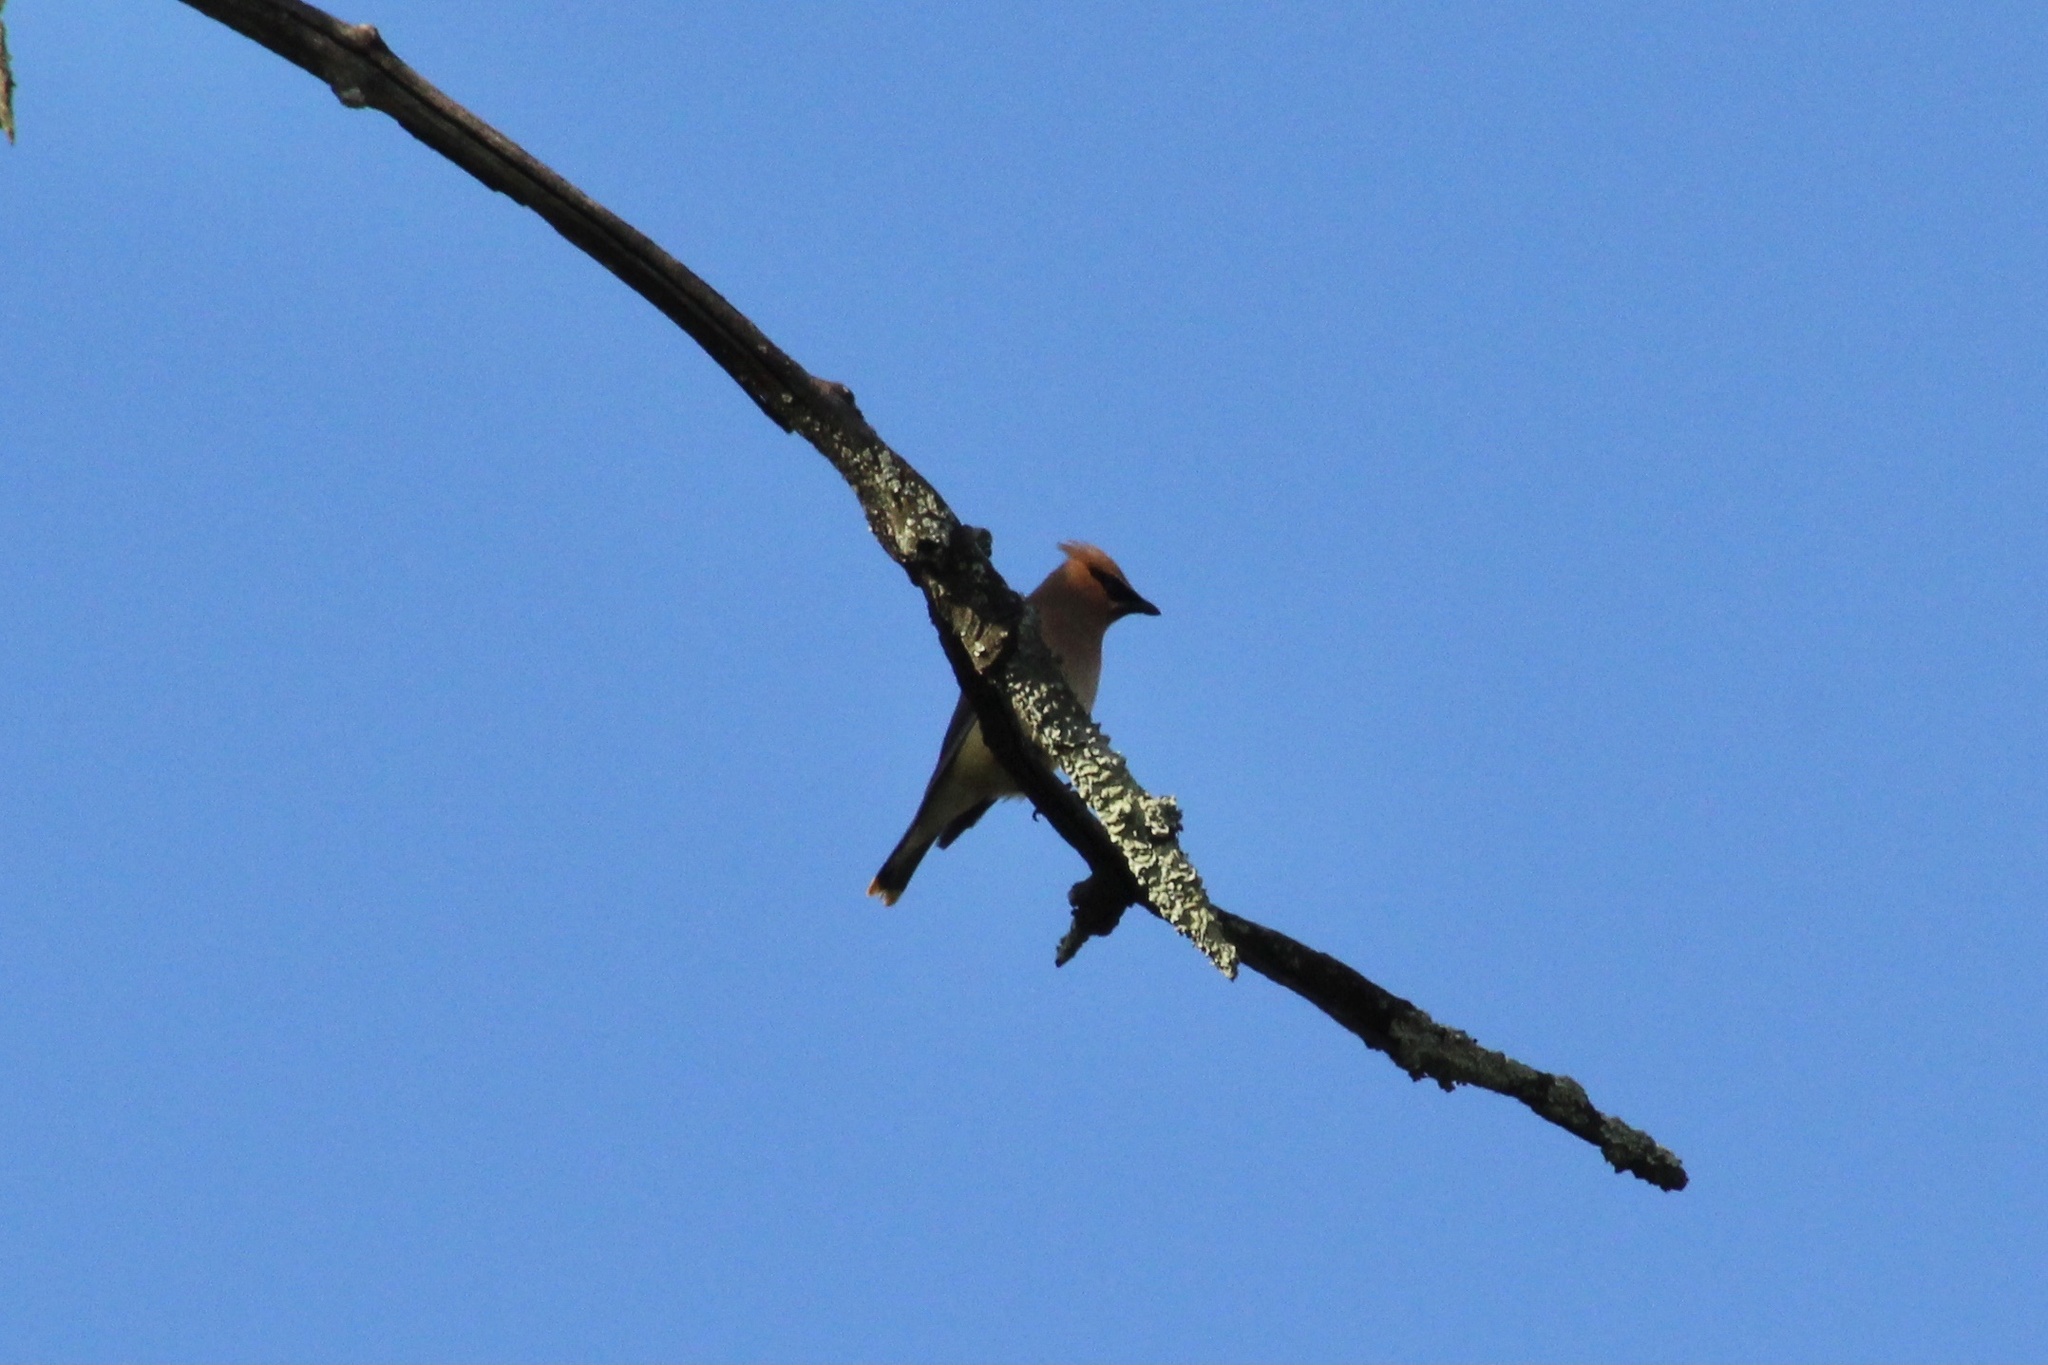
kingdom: Animalia
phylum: Chordata
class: Aves
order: Passeriformes
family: Bombycillidae
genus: Bombycilla
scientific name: Bombycilla cedrorum
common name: Cedar waxwing
